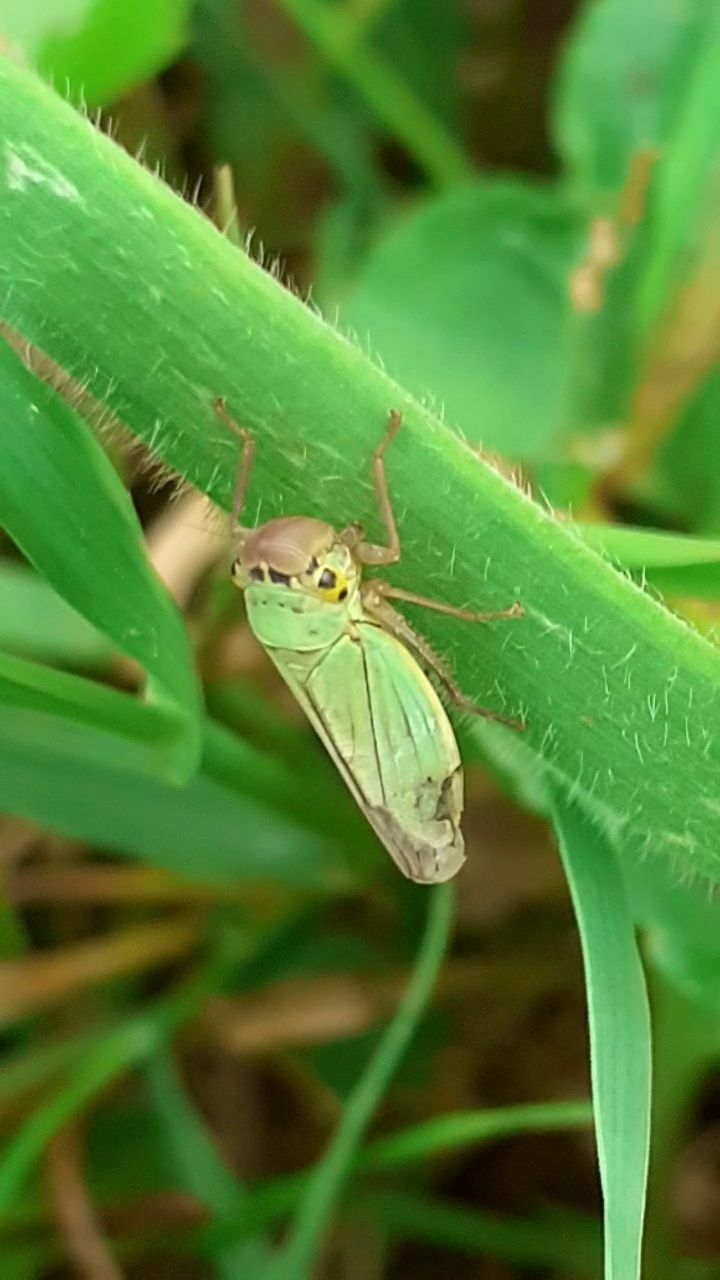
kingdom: Animalia
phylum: Arthropoda
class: Insecta
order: Hemiptera
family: Cicadellidae
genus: Cicadella
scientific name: Cicadella viridis
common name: Leafhopper
